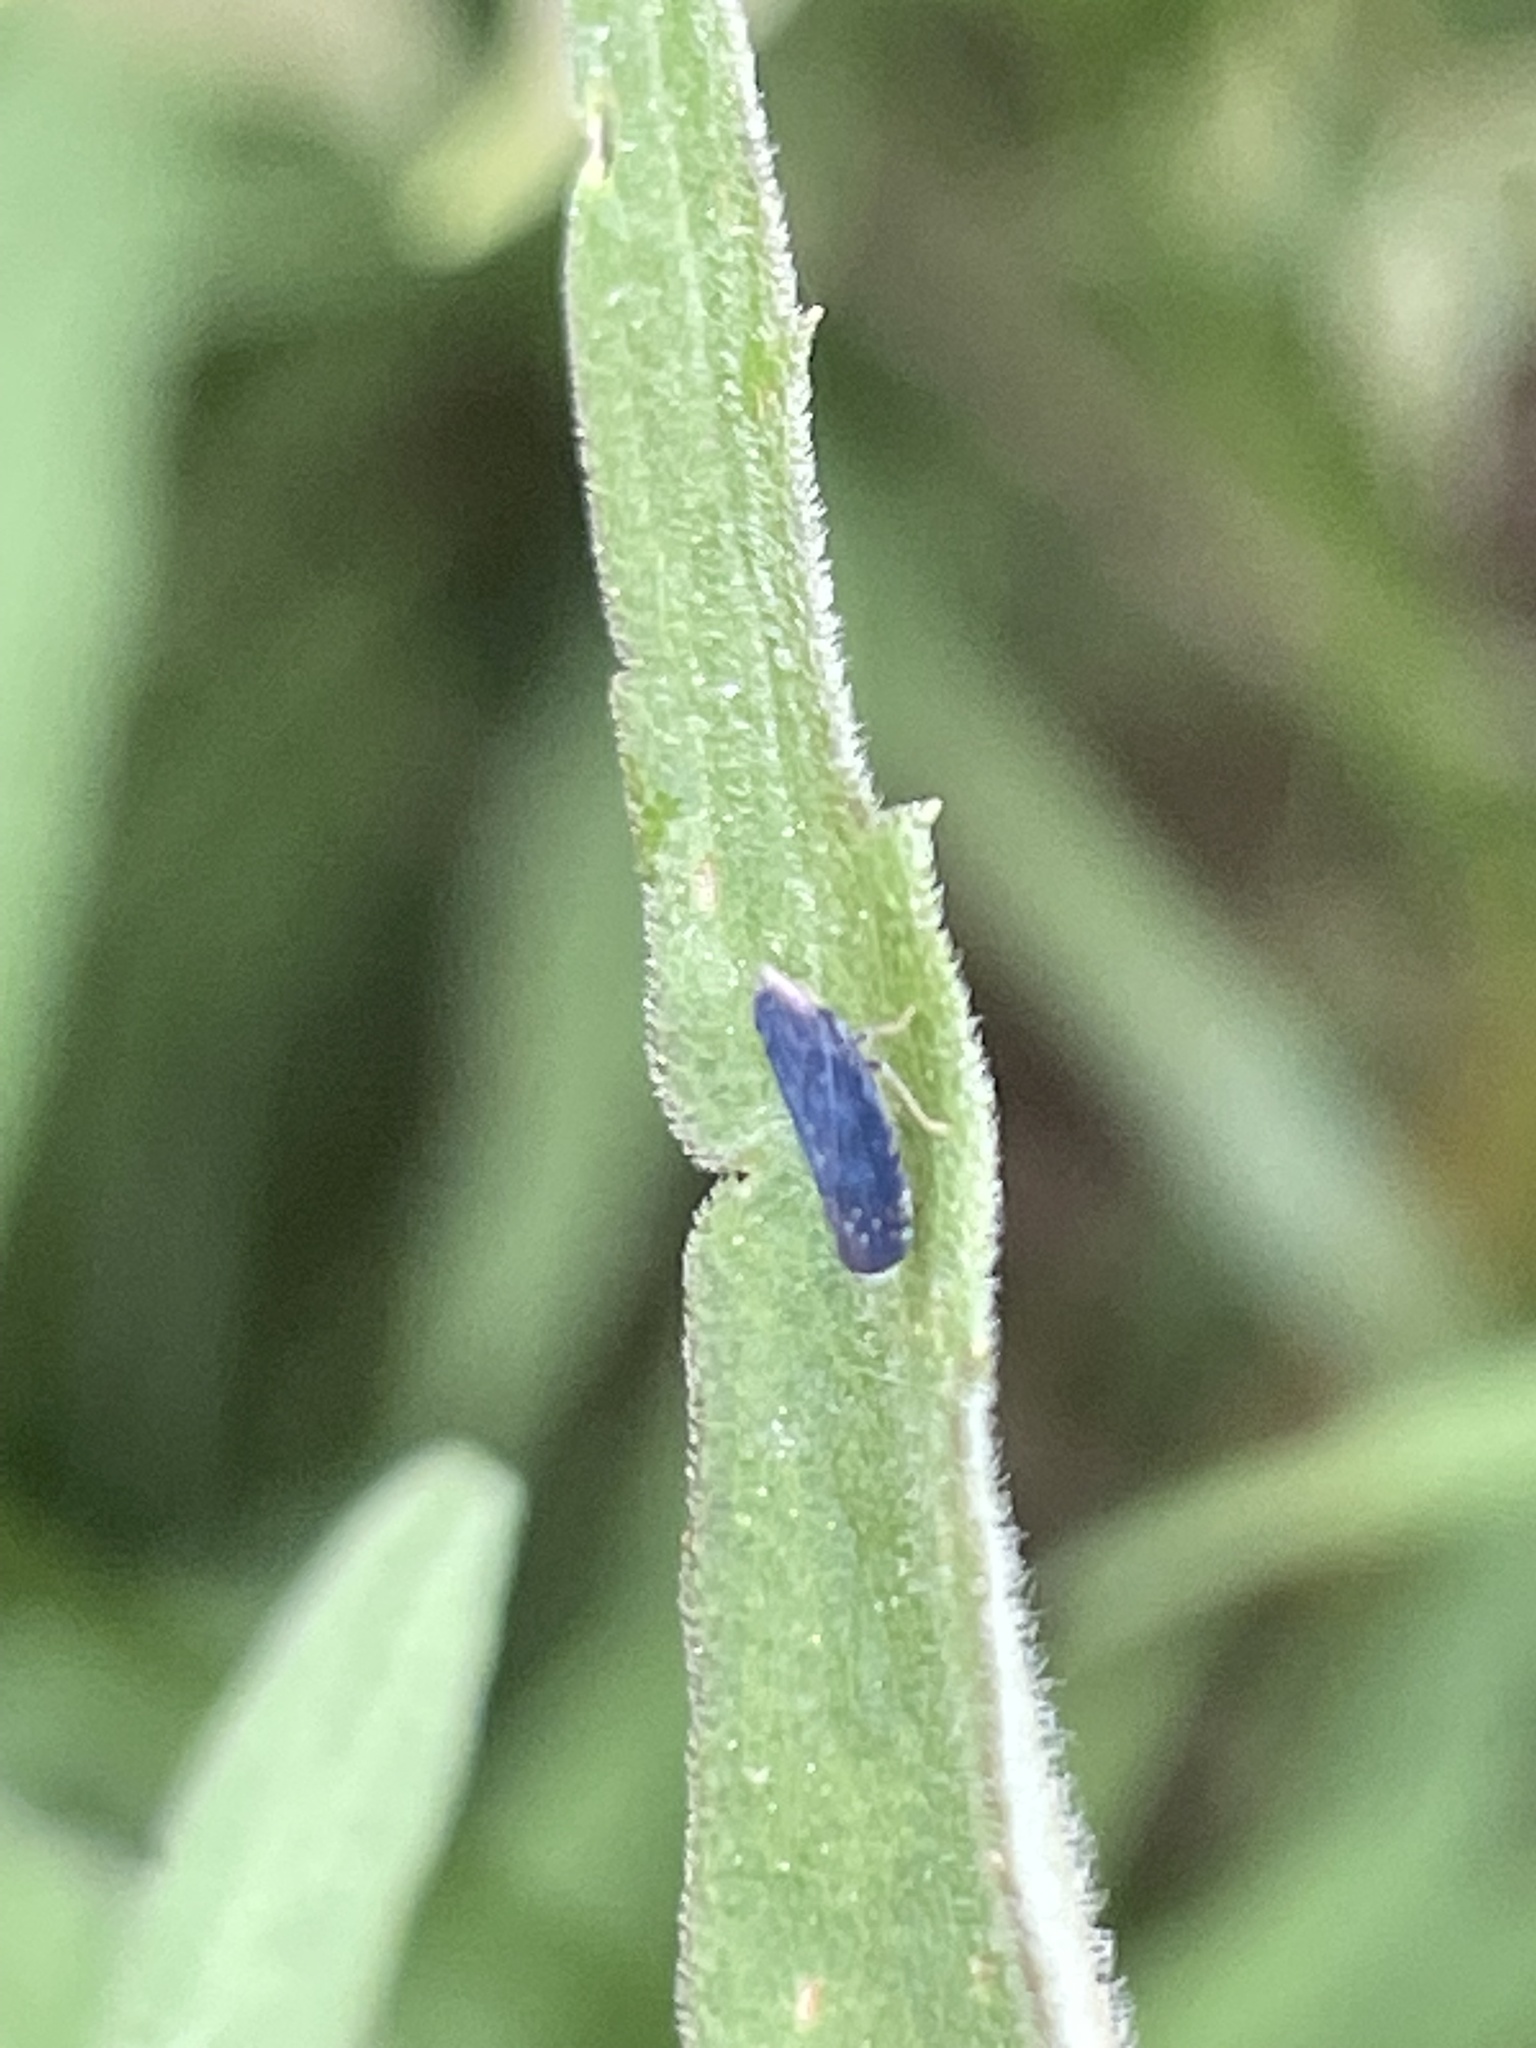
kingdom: Animalia
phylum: Arthropoda
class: Insecta
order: Hemiptera
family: Cicadellidae
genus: Scaphytopius
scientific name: Scaphytopius frontalis
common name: The yellow-faced leafhopper
